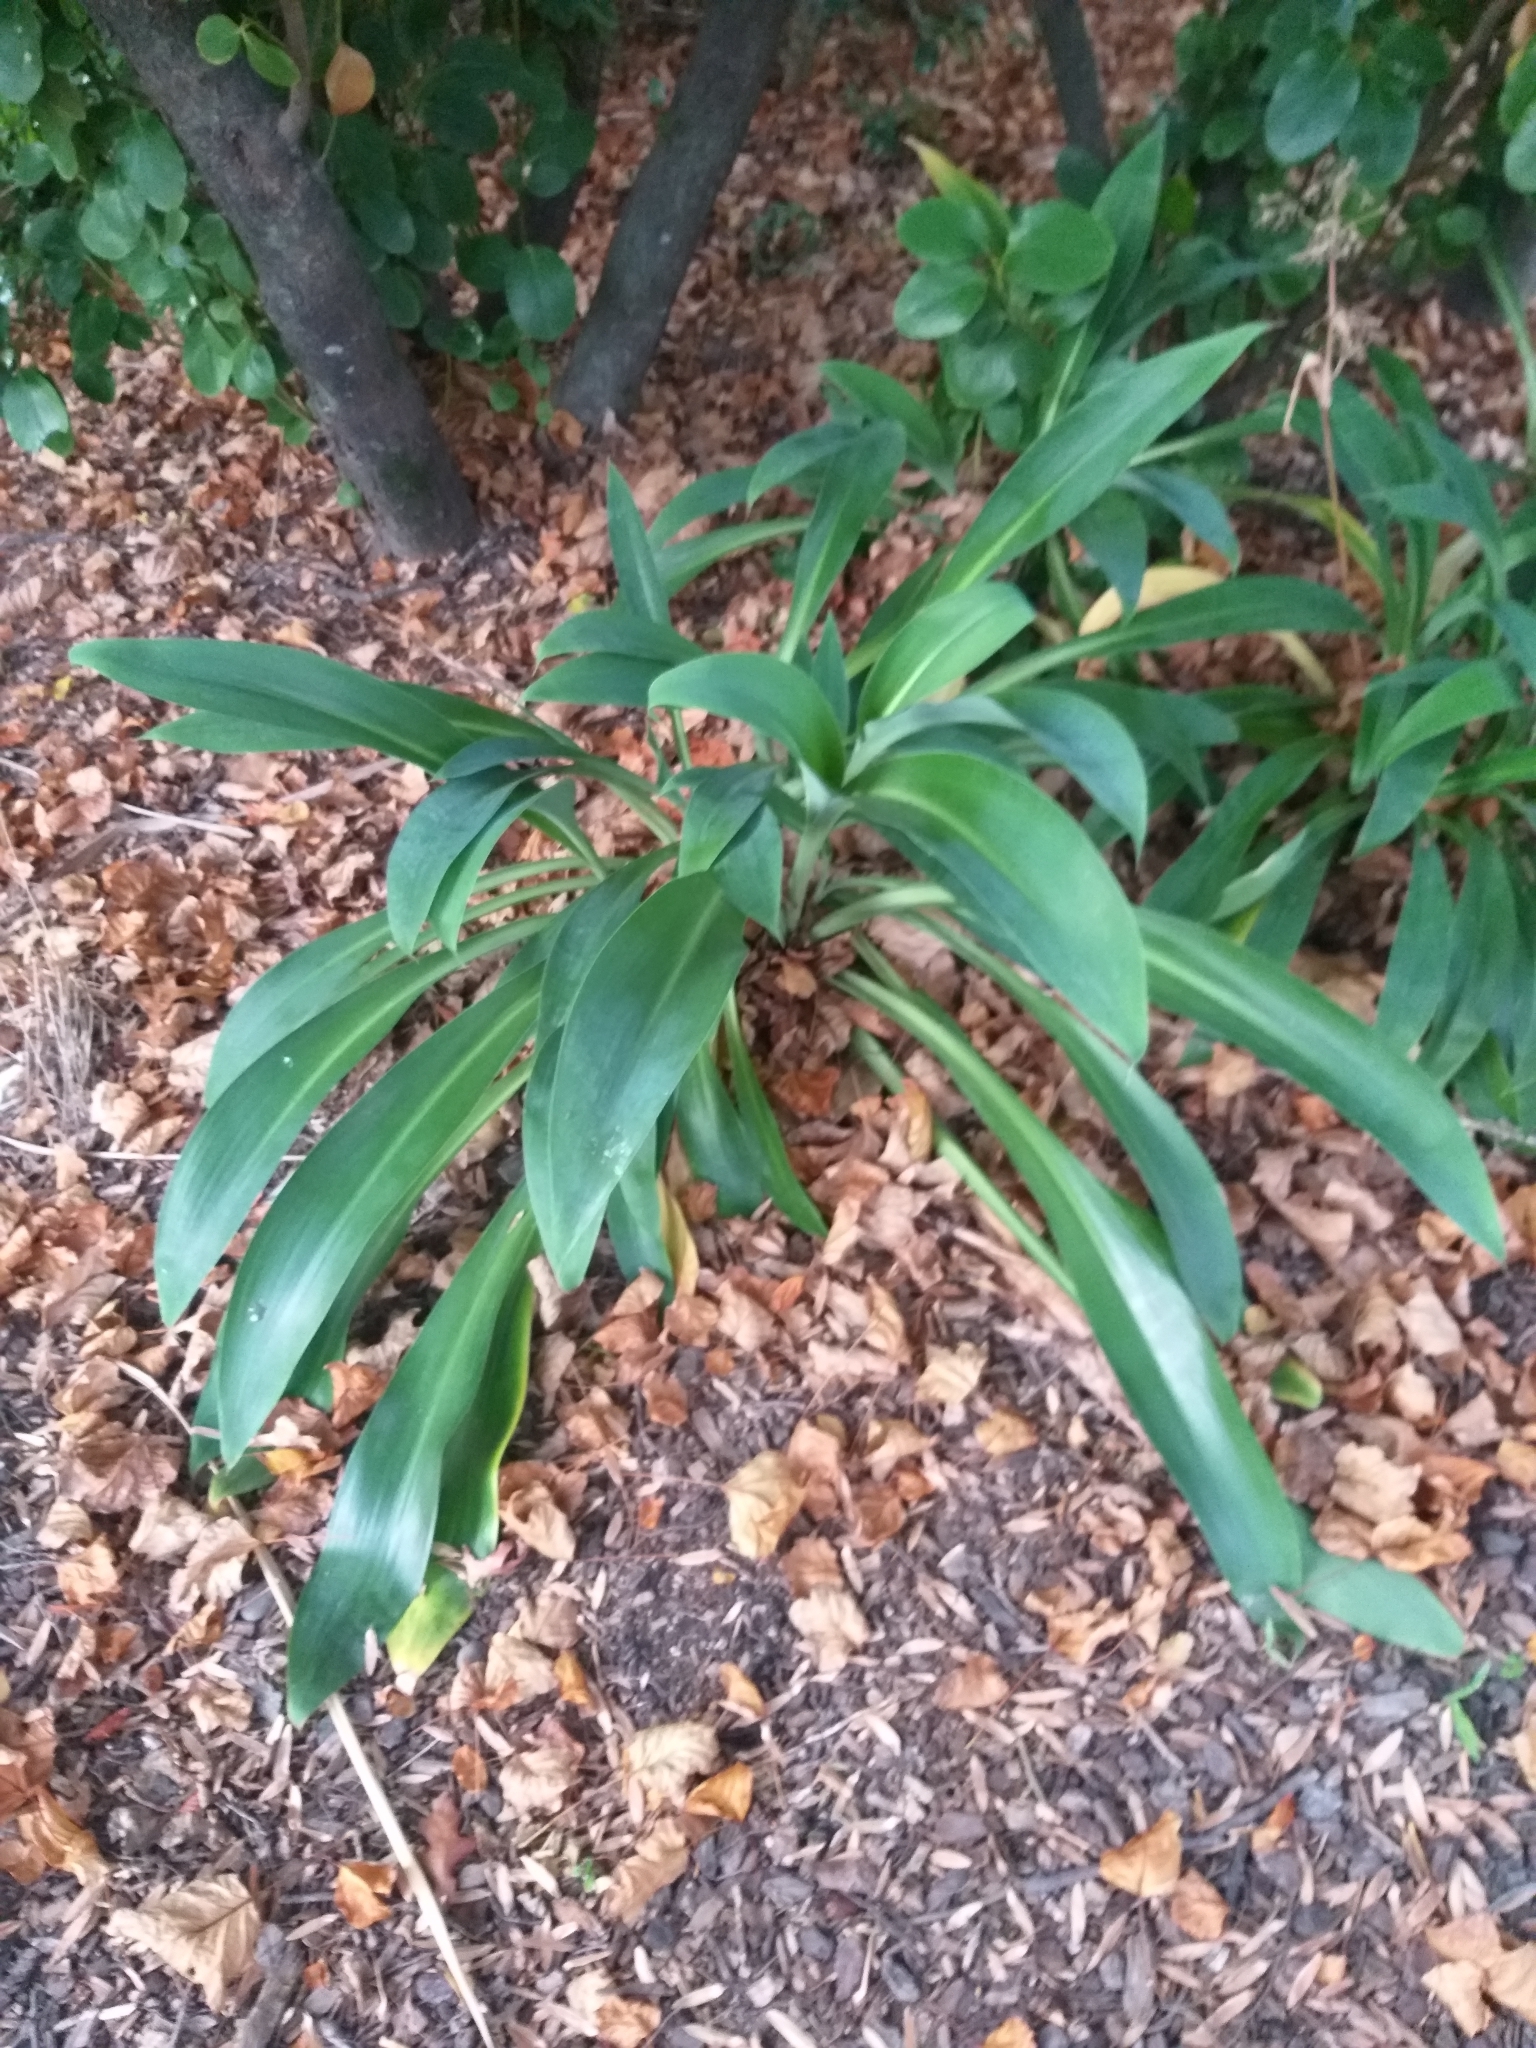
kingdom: Plantae
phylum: Tracheophyta
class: Liliopsida
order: Asparagales
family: Asparagaceae
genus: Arthropodium
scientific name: Arthropodium cirratum
